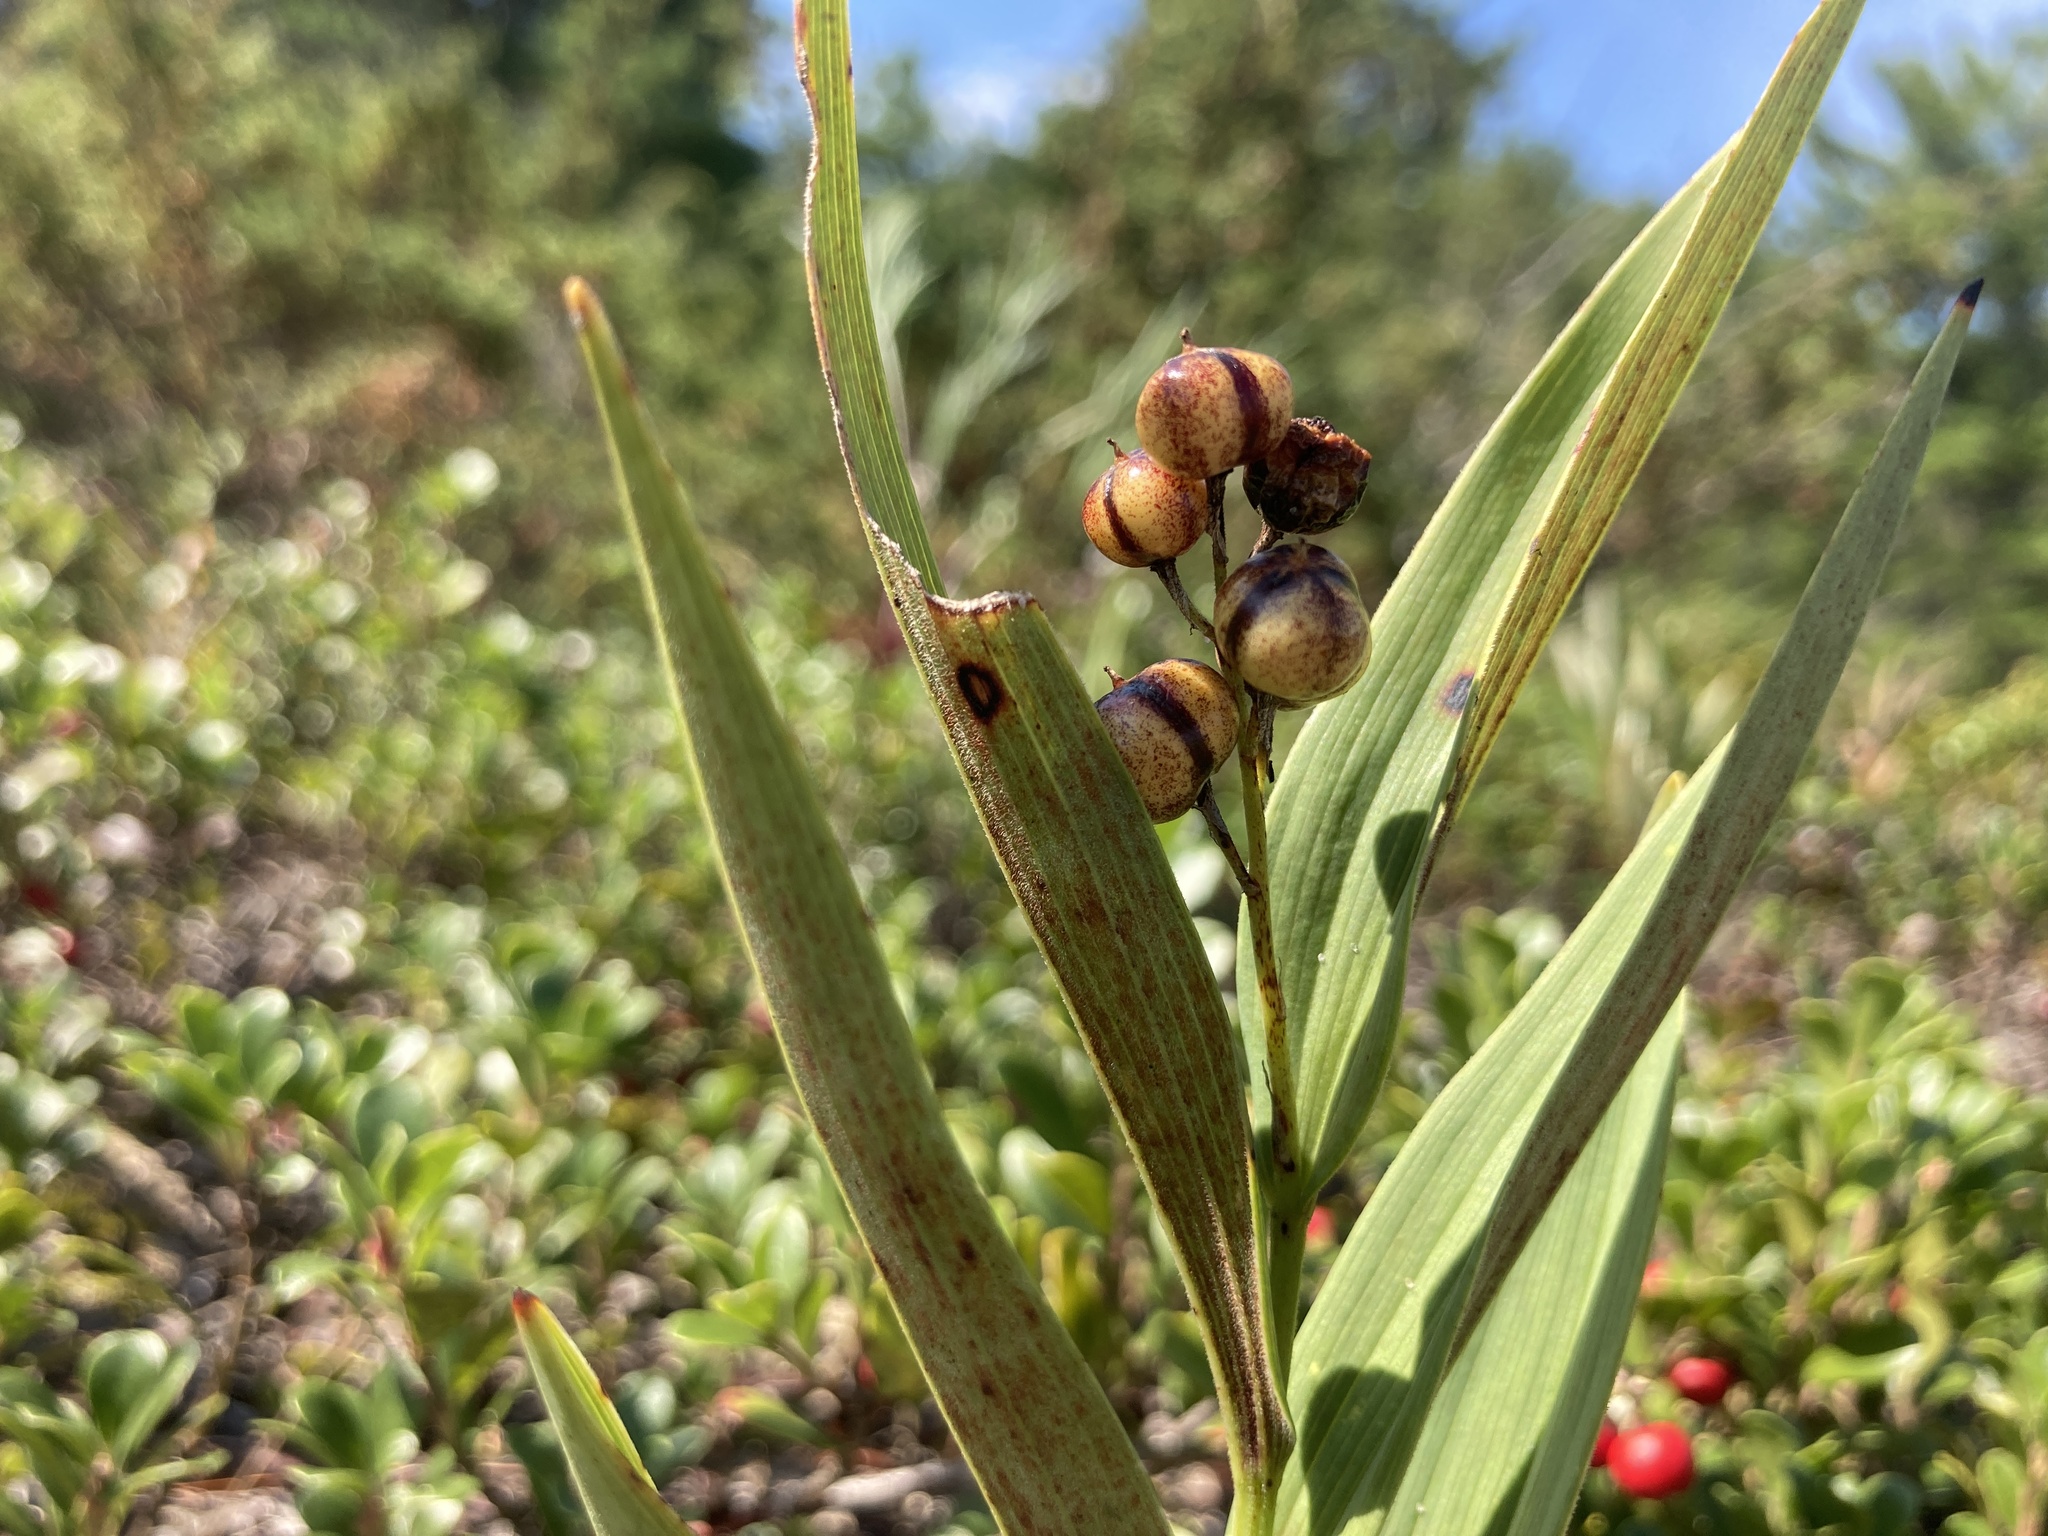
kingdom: Plantae
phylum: Tracheophyta
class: Liliopsida
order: Asparagales
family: Asparagaceae
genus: Maianthemum
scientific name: Maianthemum stellatum
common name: Little false solomon's seal
